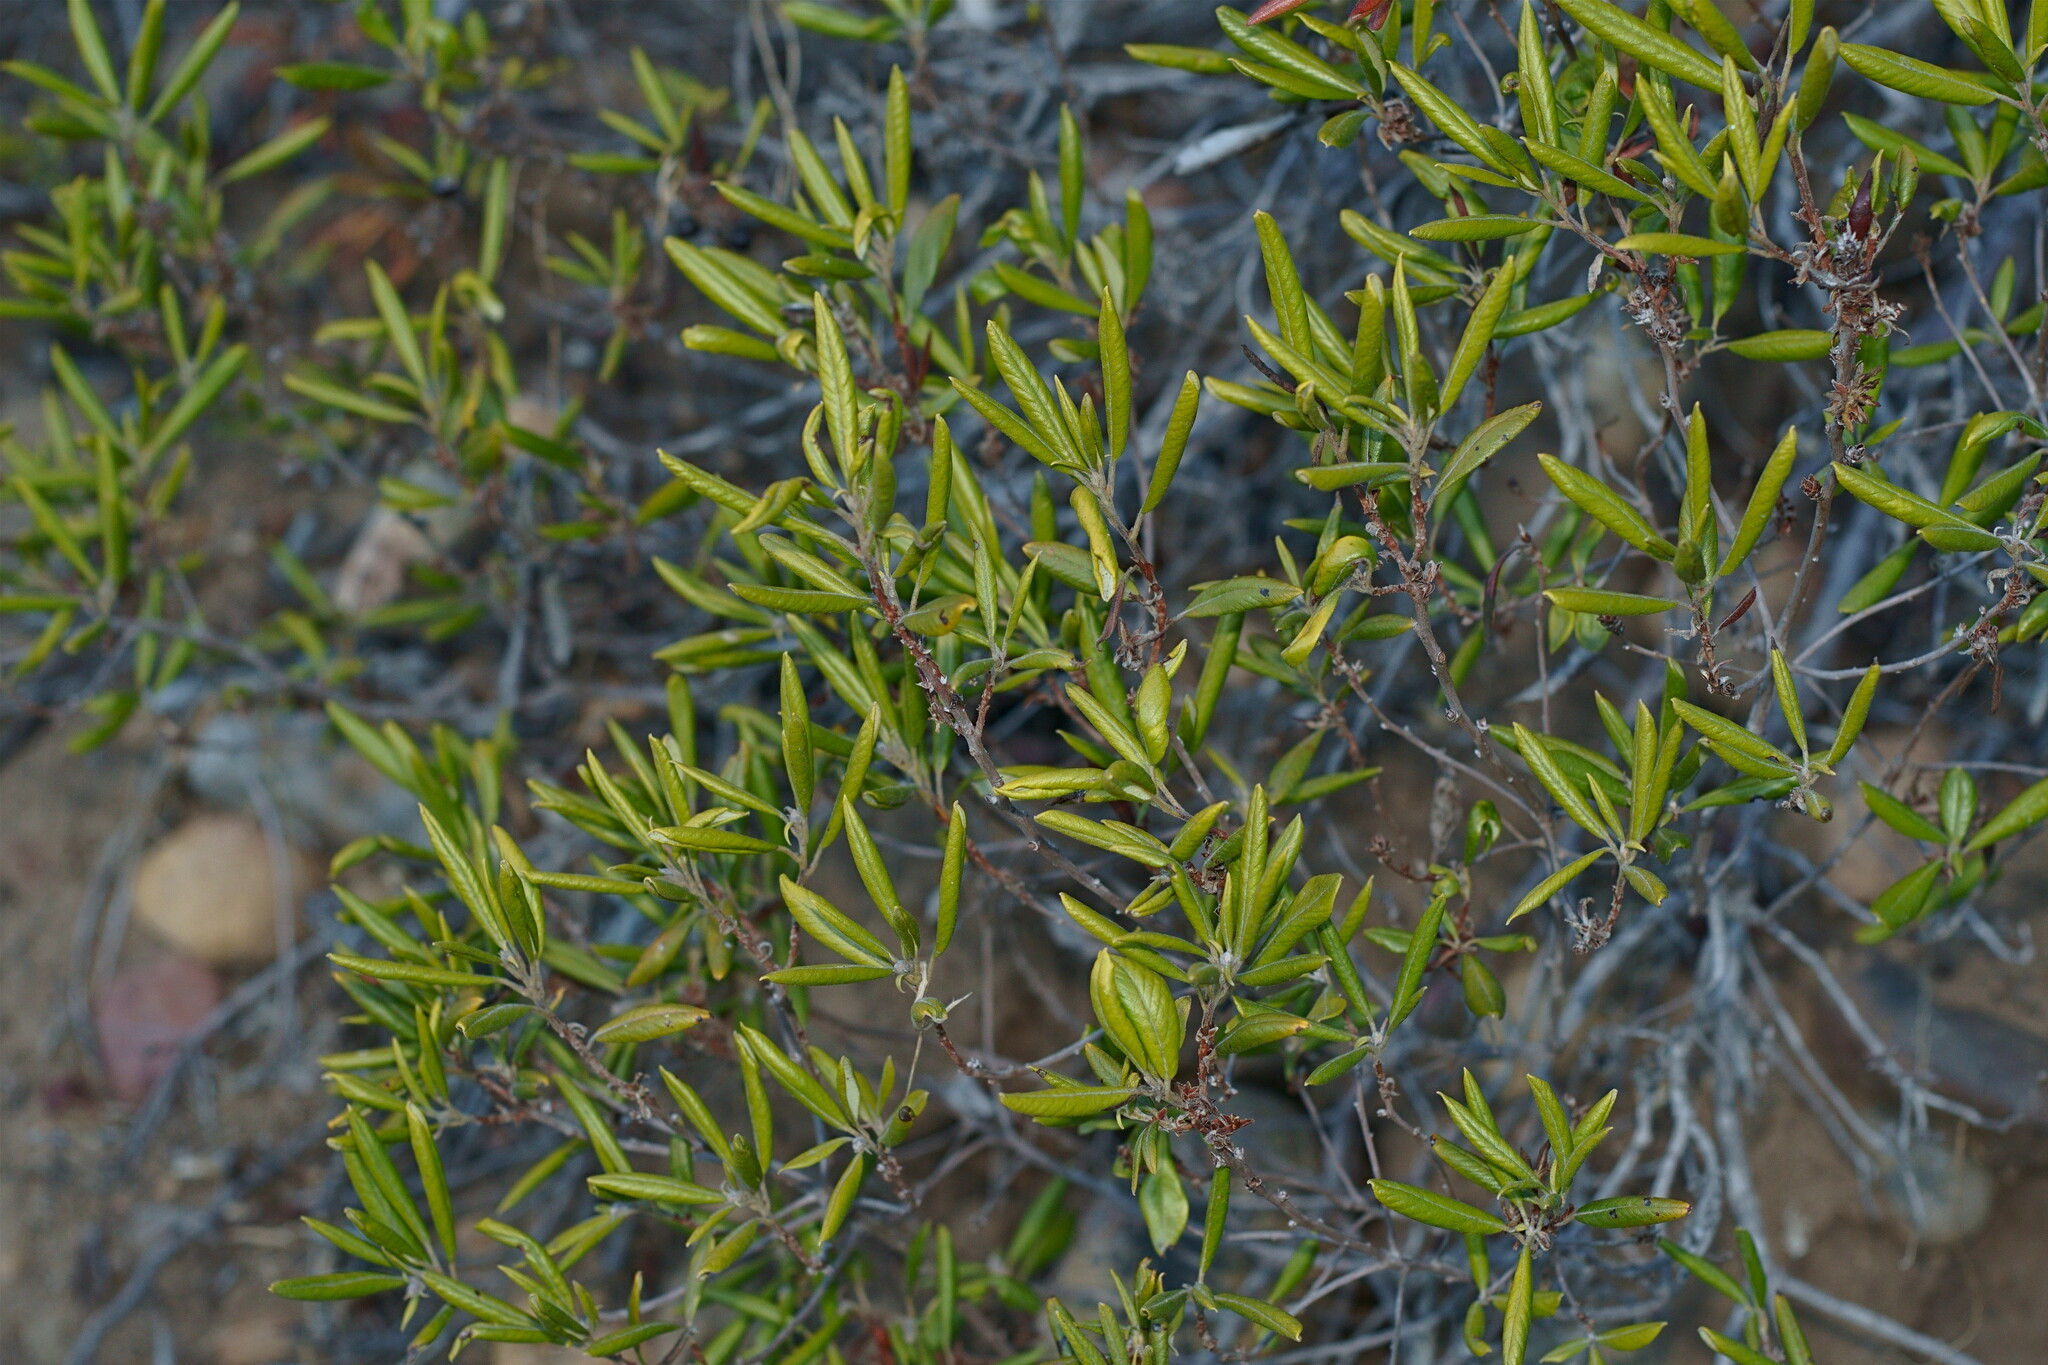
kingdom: Plantae
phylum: Tracheophyta
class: Magnoliopsida
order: Ericales
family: Ericaceae
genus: Arctostaphylos
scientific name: Arctostaphylos bicolor
